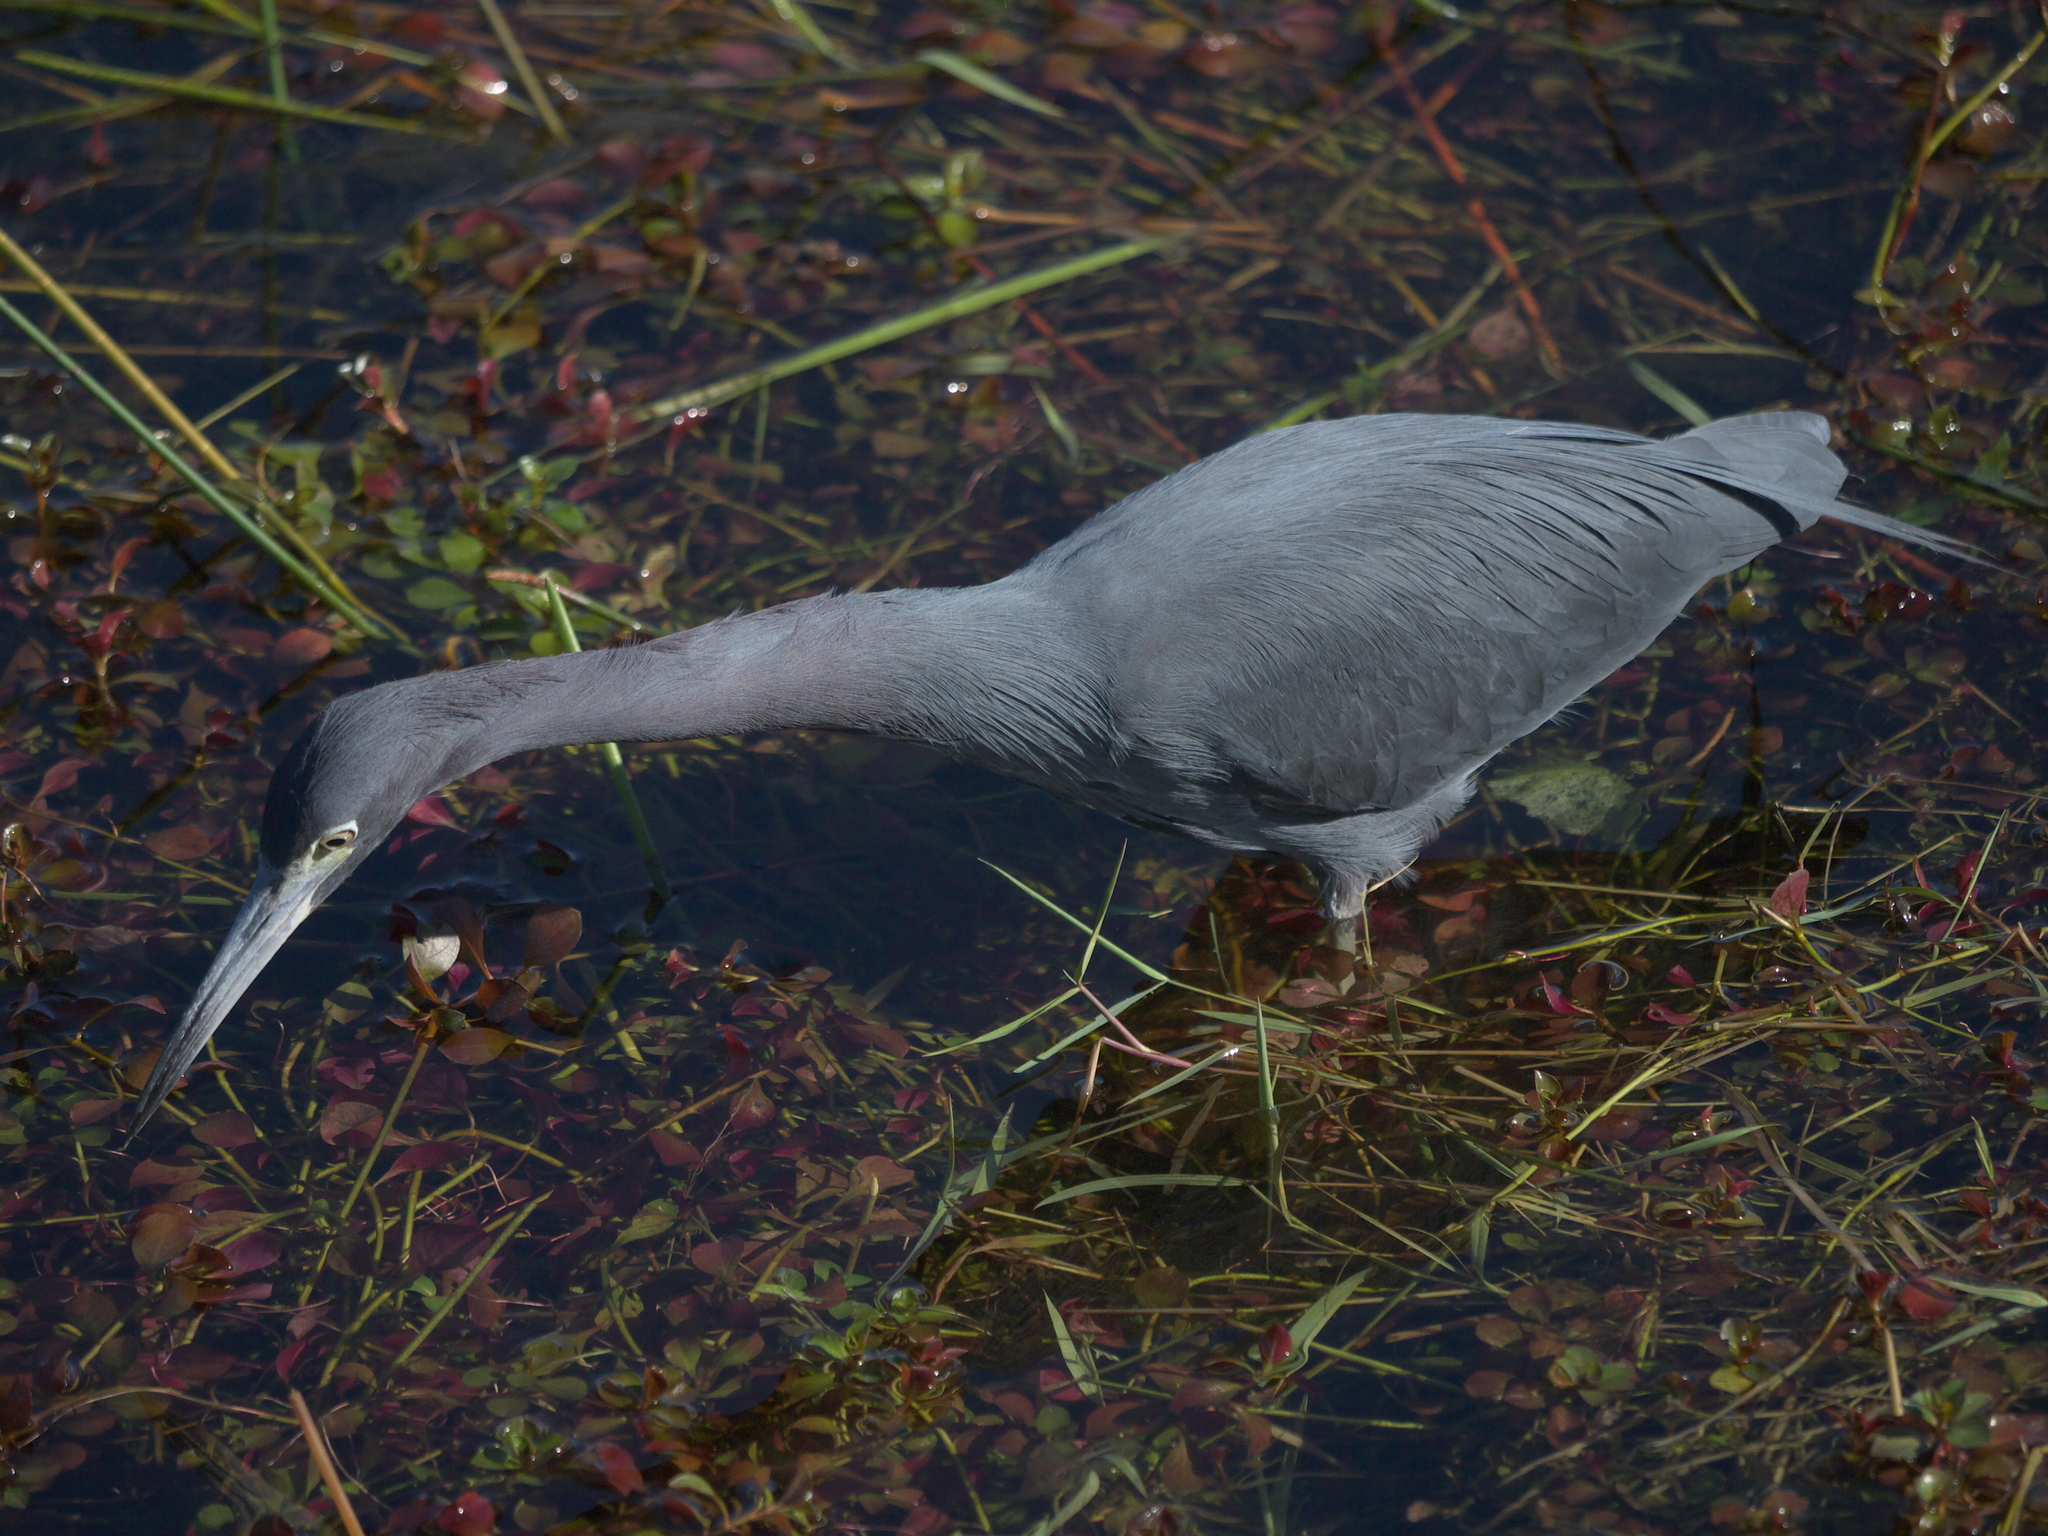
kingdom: Animalia
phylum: Chordata
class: Aves
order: Pelecaniformes
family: Ardeidae
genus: Egretta
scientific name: Egretta caerulea
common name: Little blue heron
